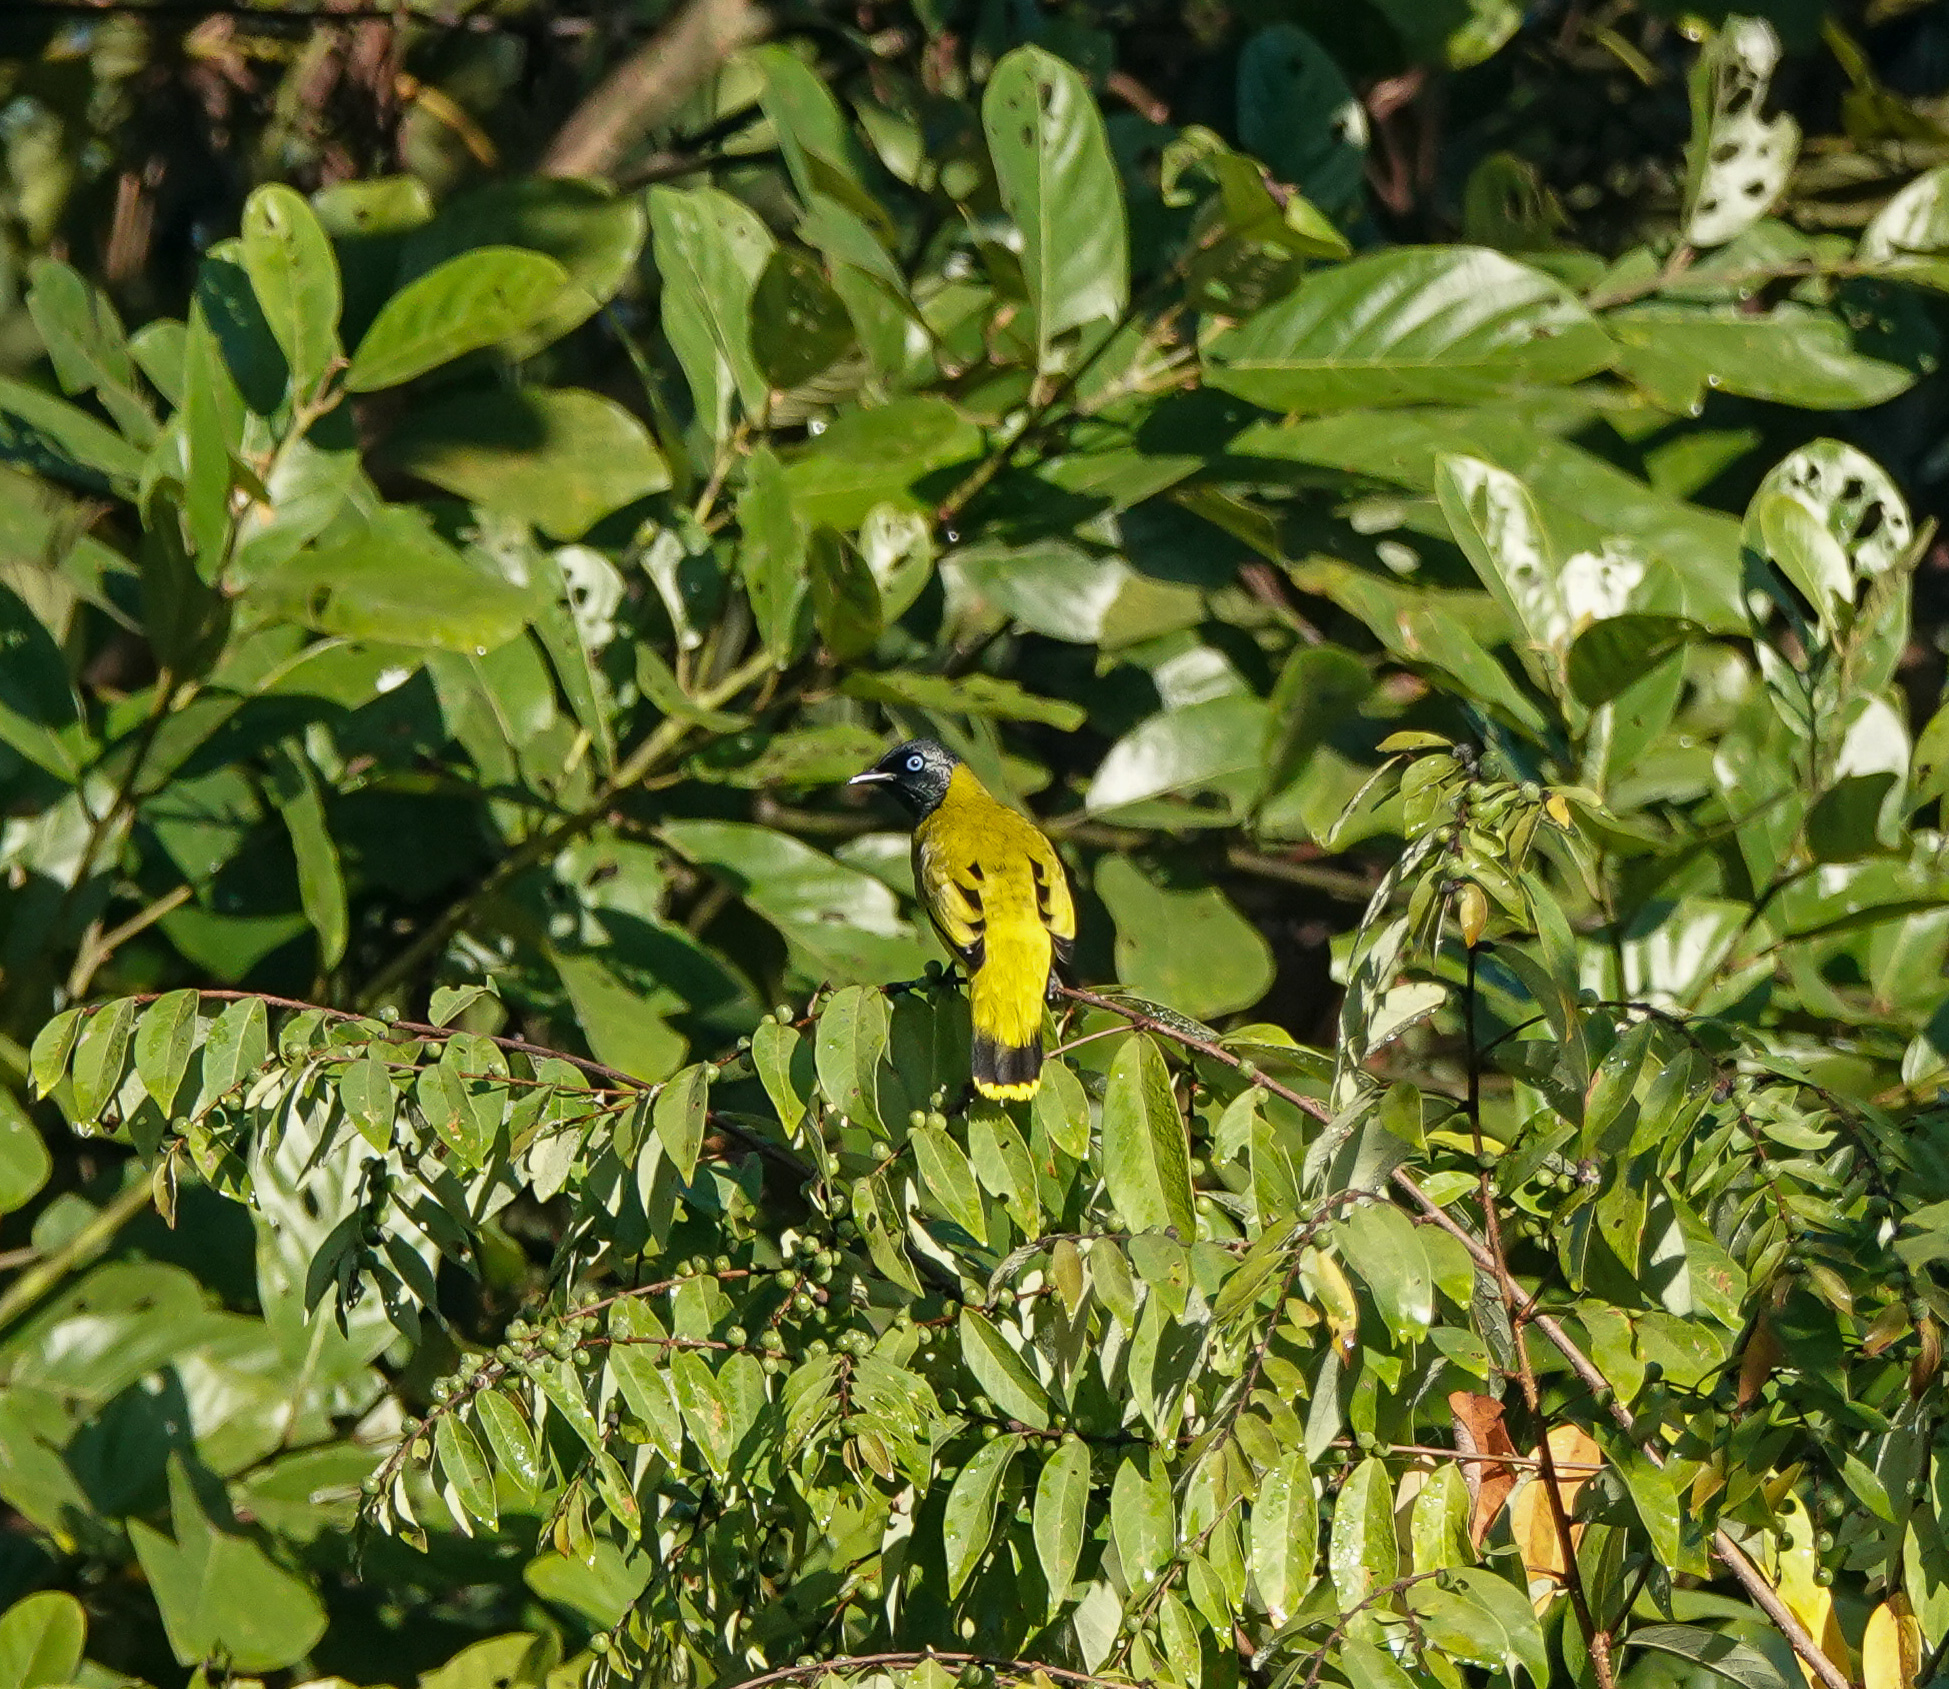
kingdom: Animalia
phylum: Chordata
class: Aves
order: Passeriformes
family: Pycnonotidae
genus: Microtarsus
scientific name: Microtarsus
